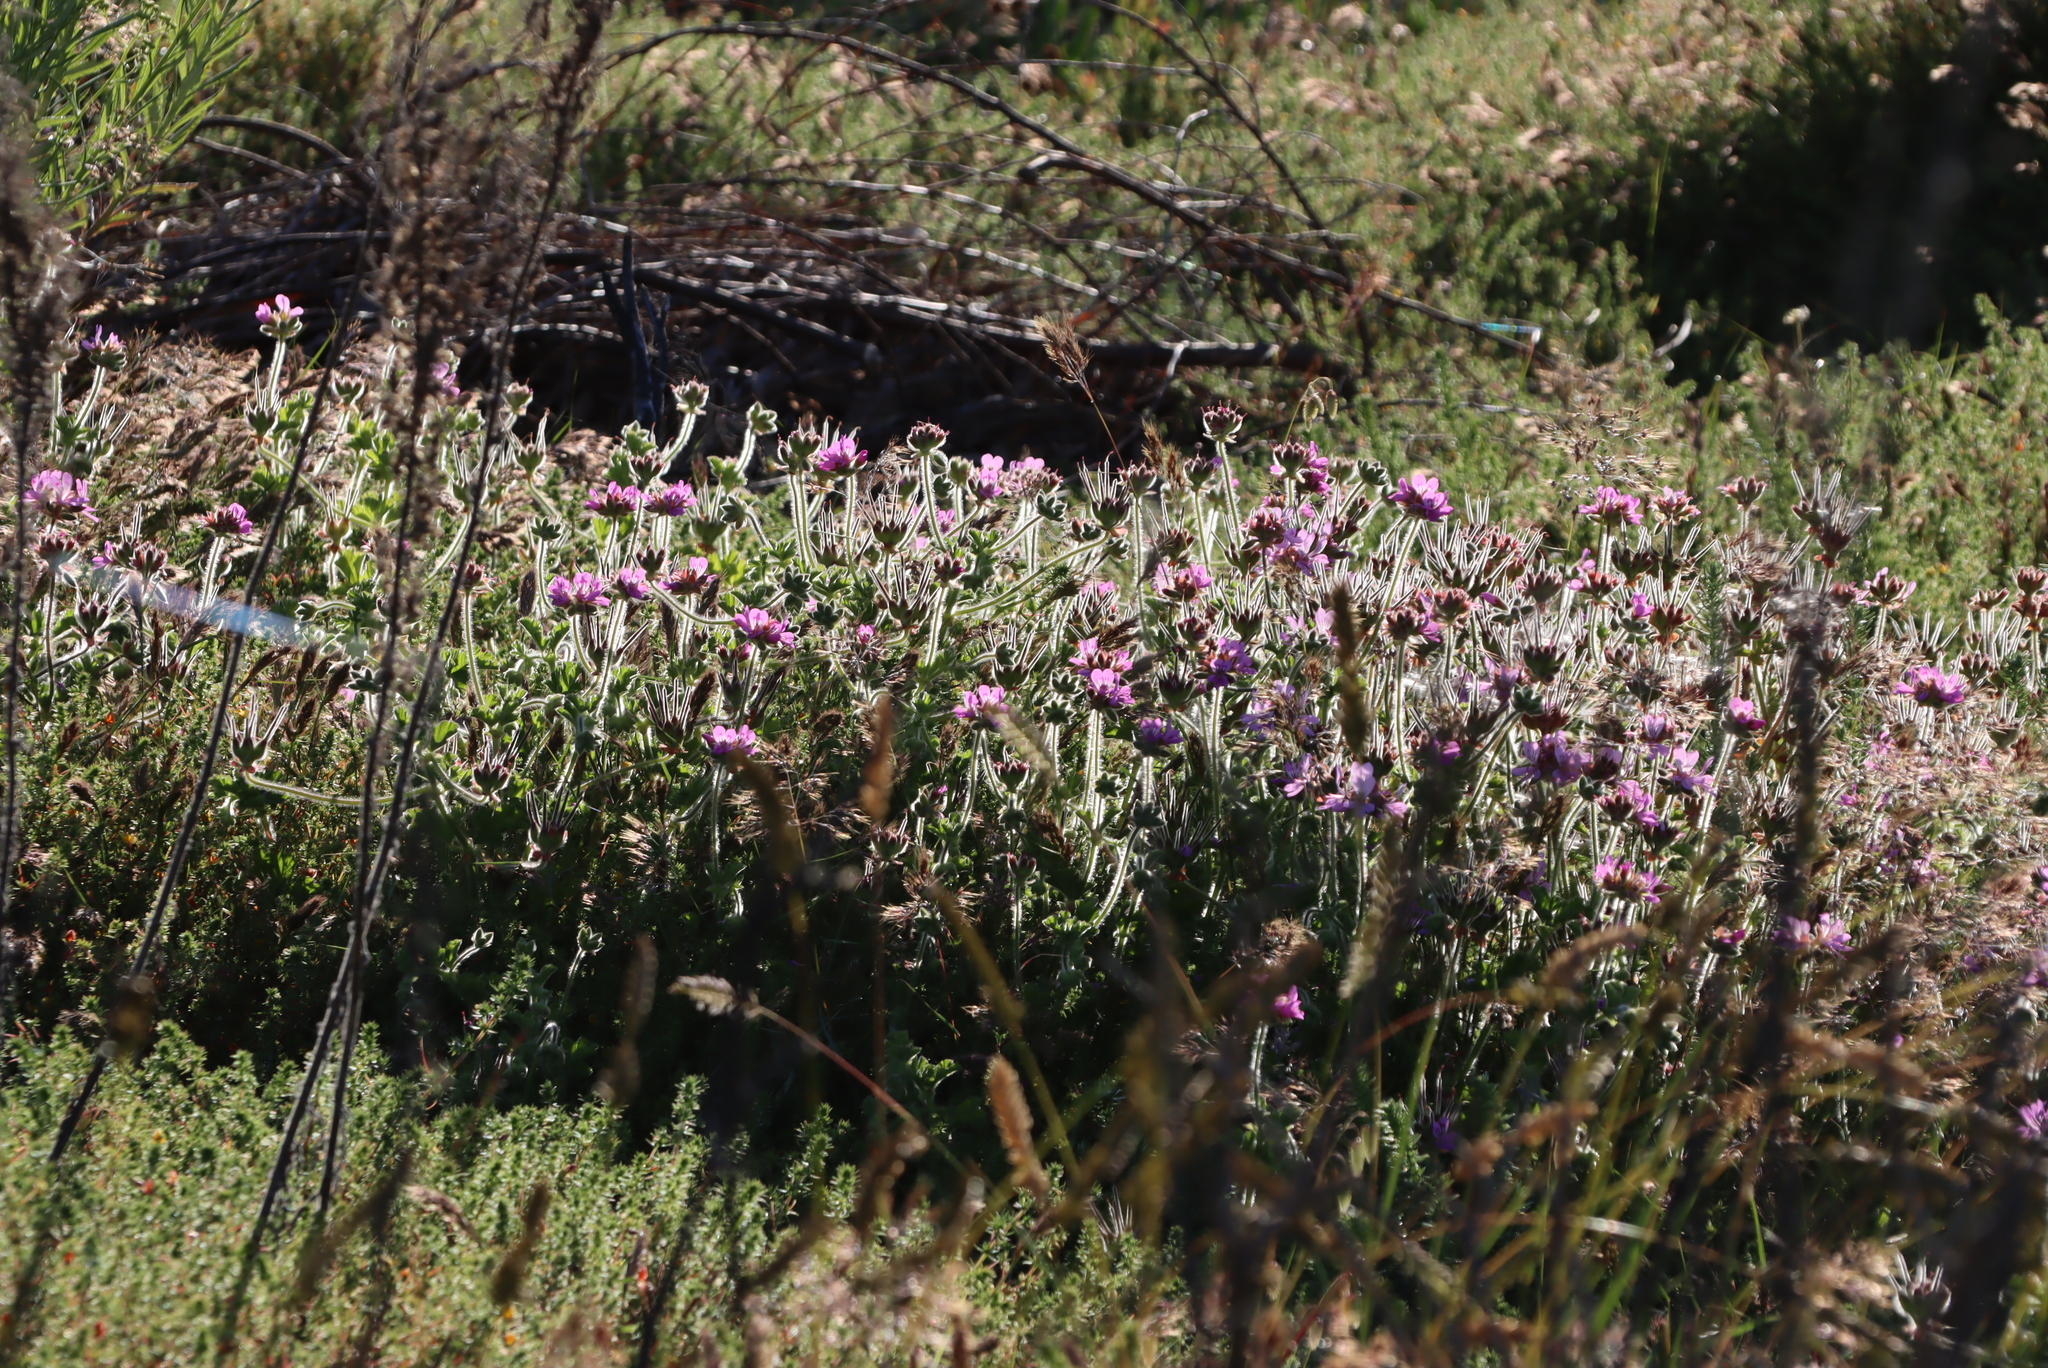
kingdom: Plantae
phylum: Tracheophyta
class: Magnoliopsida
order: Geraniales
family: Geraniaceae
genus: Pelargonium
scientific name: Pelargonium capitatum
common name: Rose scented geranium
